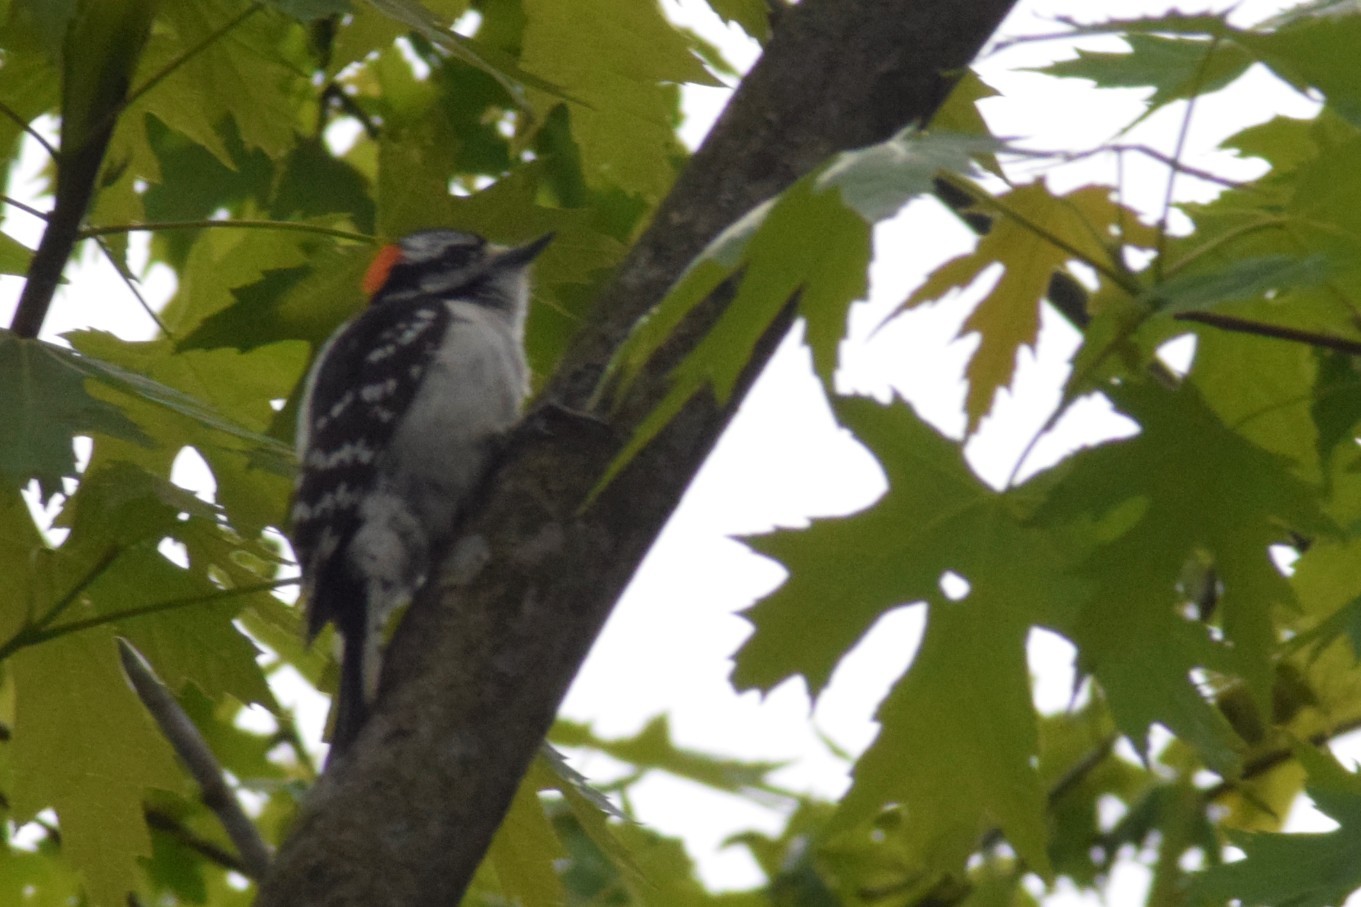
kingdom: Animalia
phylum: Chordata
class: Aves
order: Piciformes
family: Picidae
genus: Dryobates
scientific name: Dryobates pubescens
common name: Downy woodpecker
